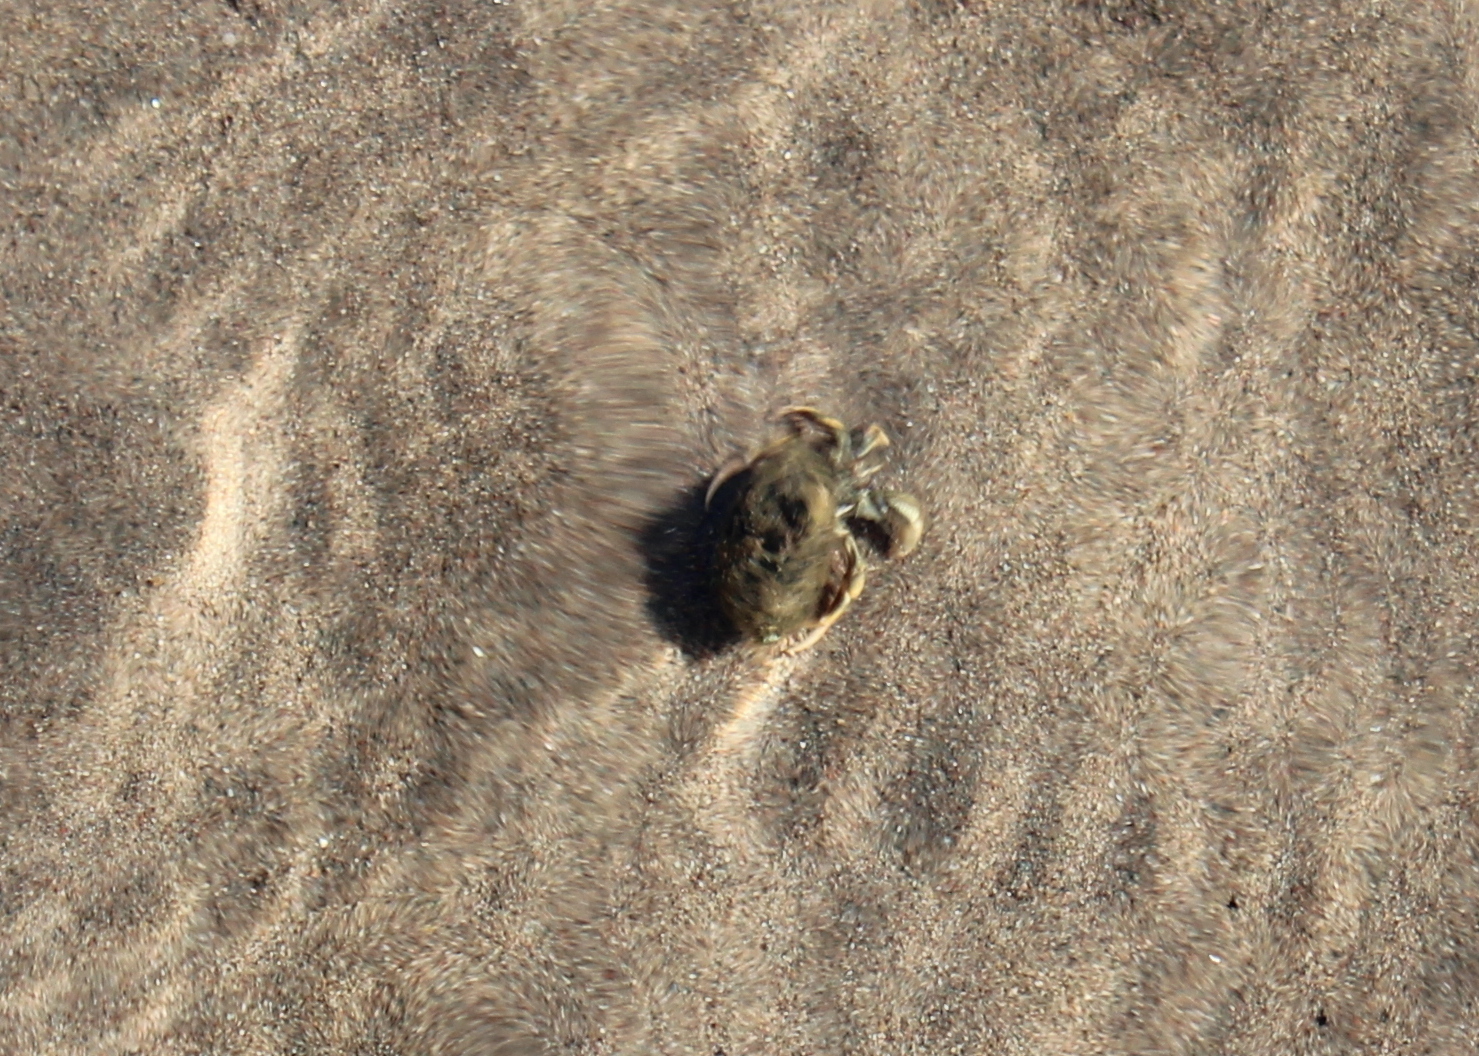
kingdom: Animalia
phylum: Arthropoda
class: Malacostraca
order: Decapoda
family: Paguridae
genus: Pagurus
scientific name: Pagurus longicarpus
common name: Long-armed hermit crab
